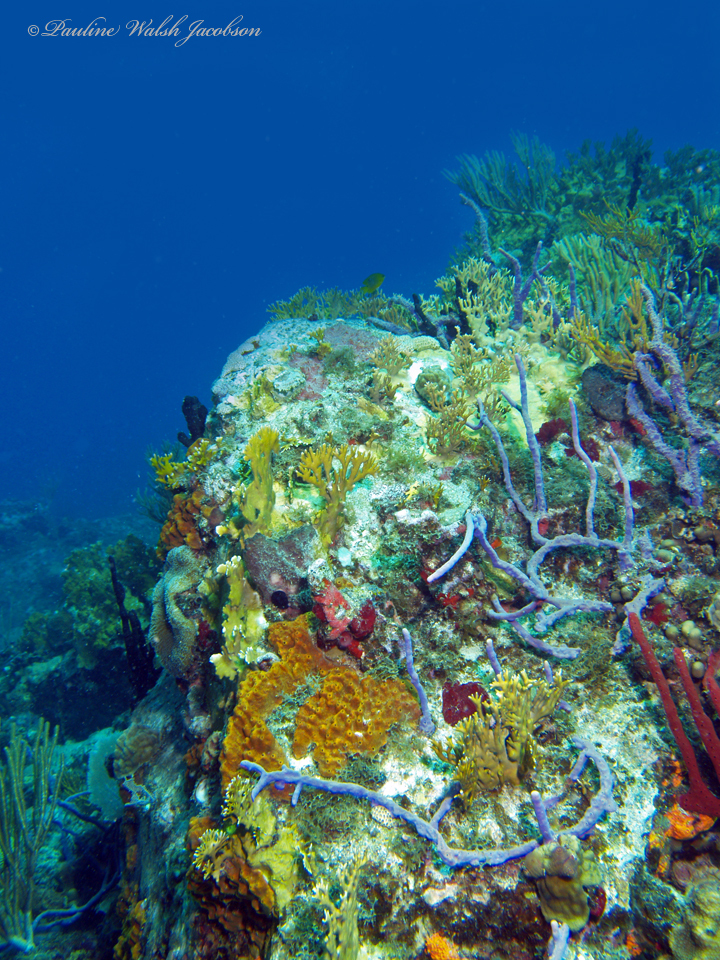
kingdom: Animalia
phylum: Porifera
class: Demospongiae
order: Verongiida
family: Aplysinidae
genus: Aplysina
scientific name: Aplysina cauliformis
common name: Branching candle sponge
